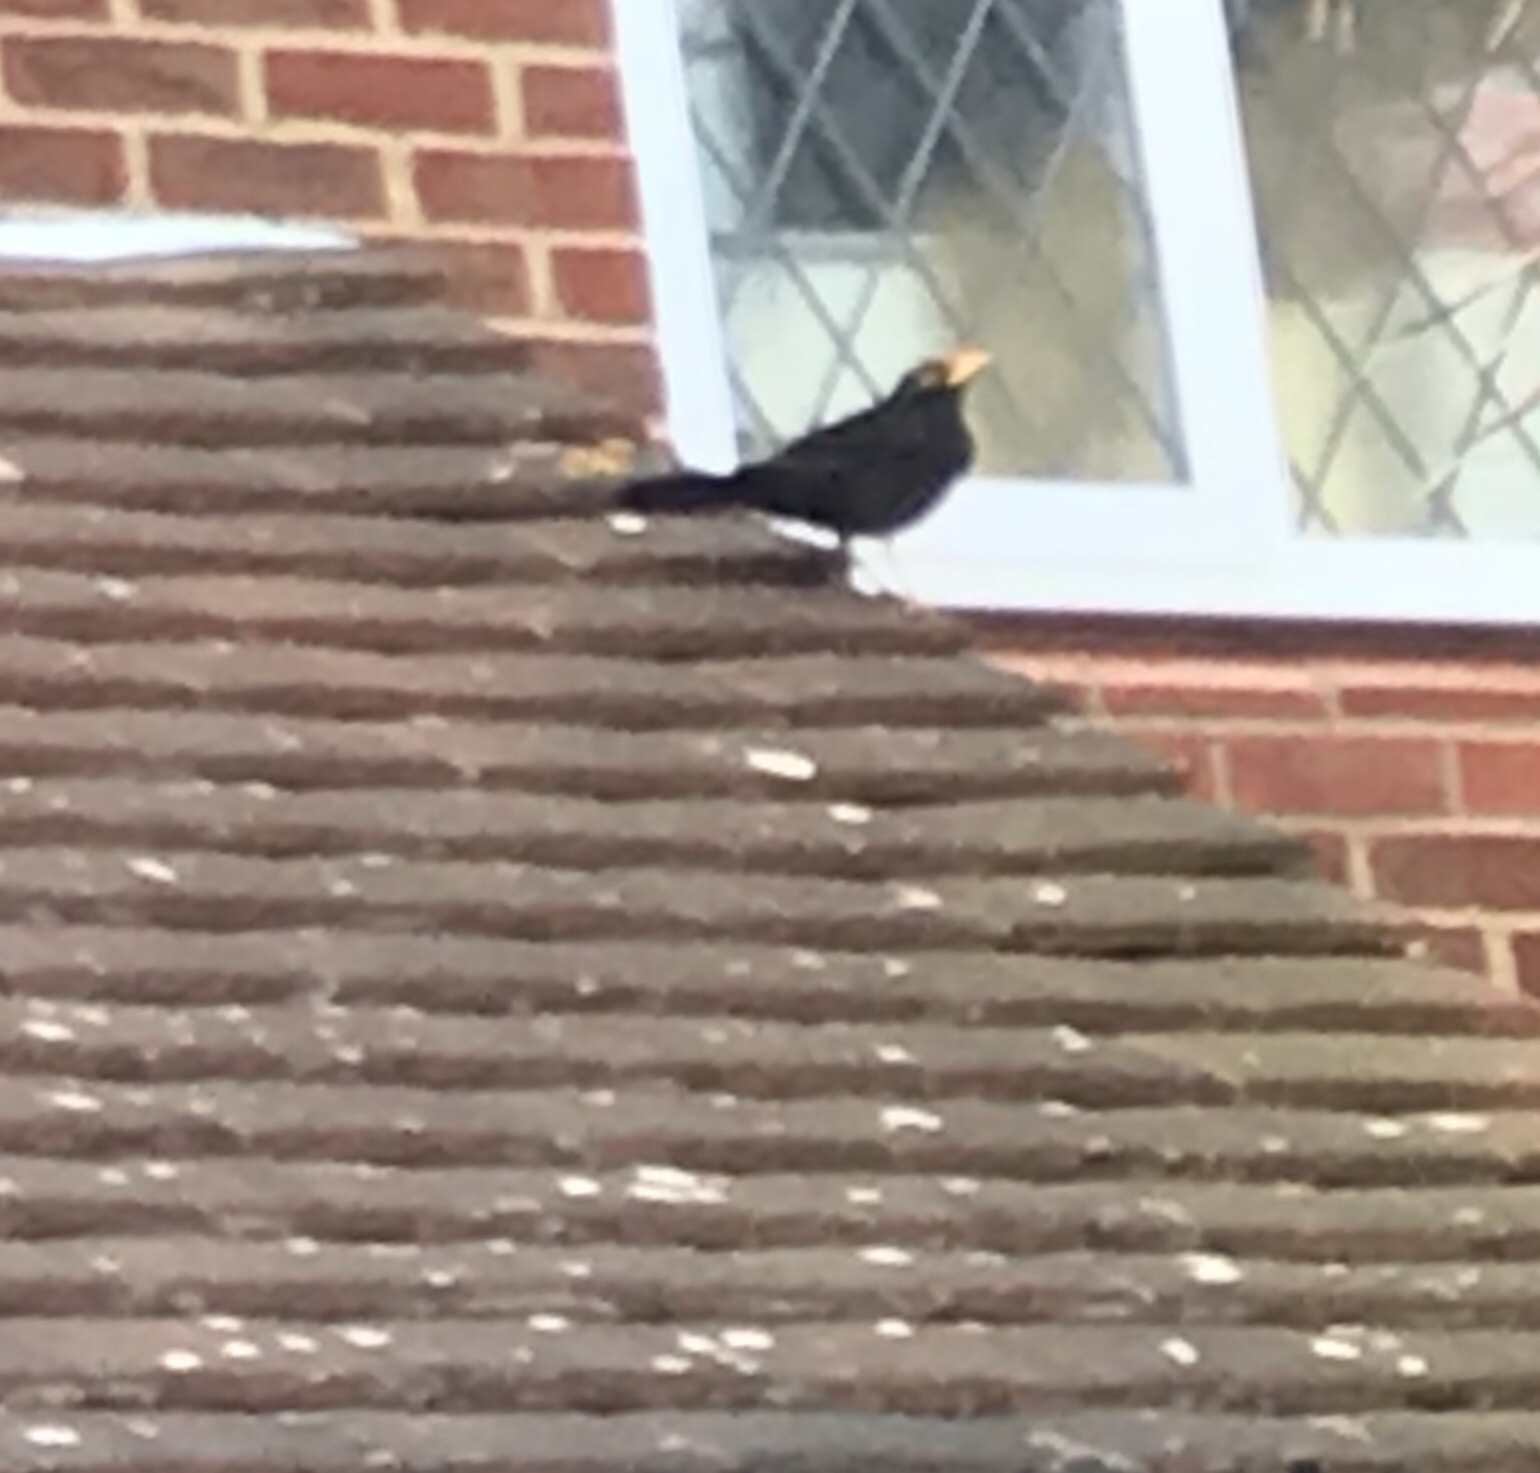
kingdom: Animalia
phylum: Chordata
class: Aves
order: Passeriformes
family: Turdidae
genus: Turdus
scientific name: Turdus merula
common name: Common blackbird
